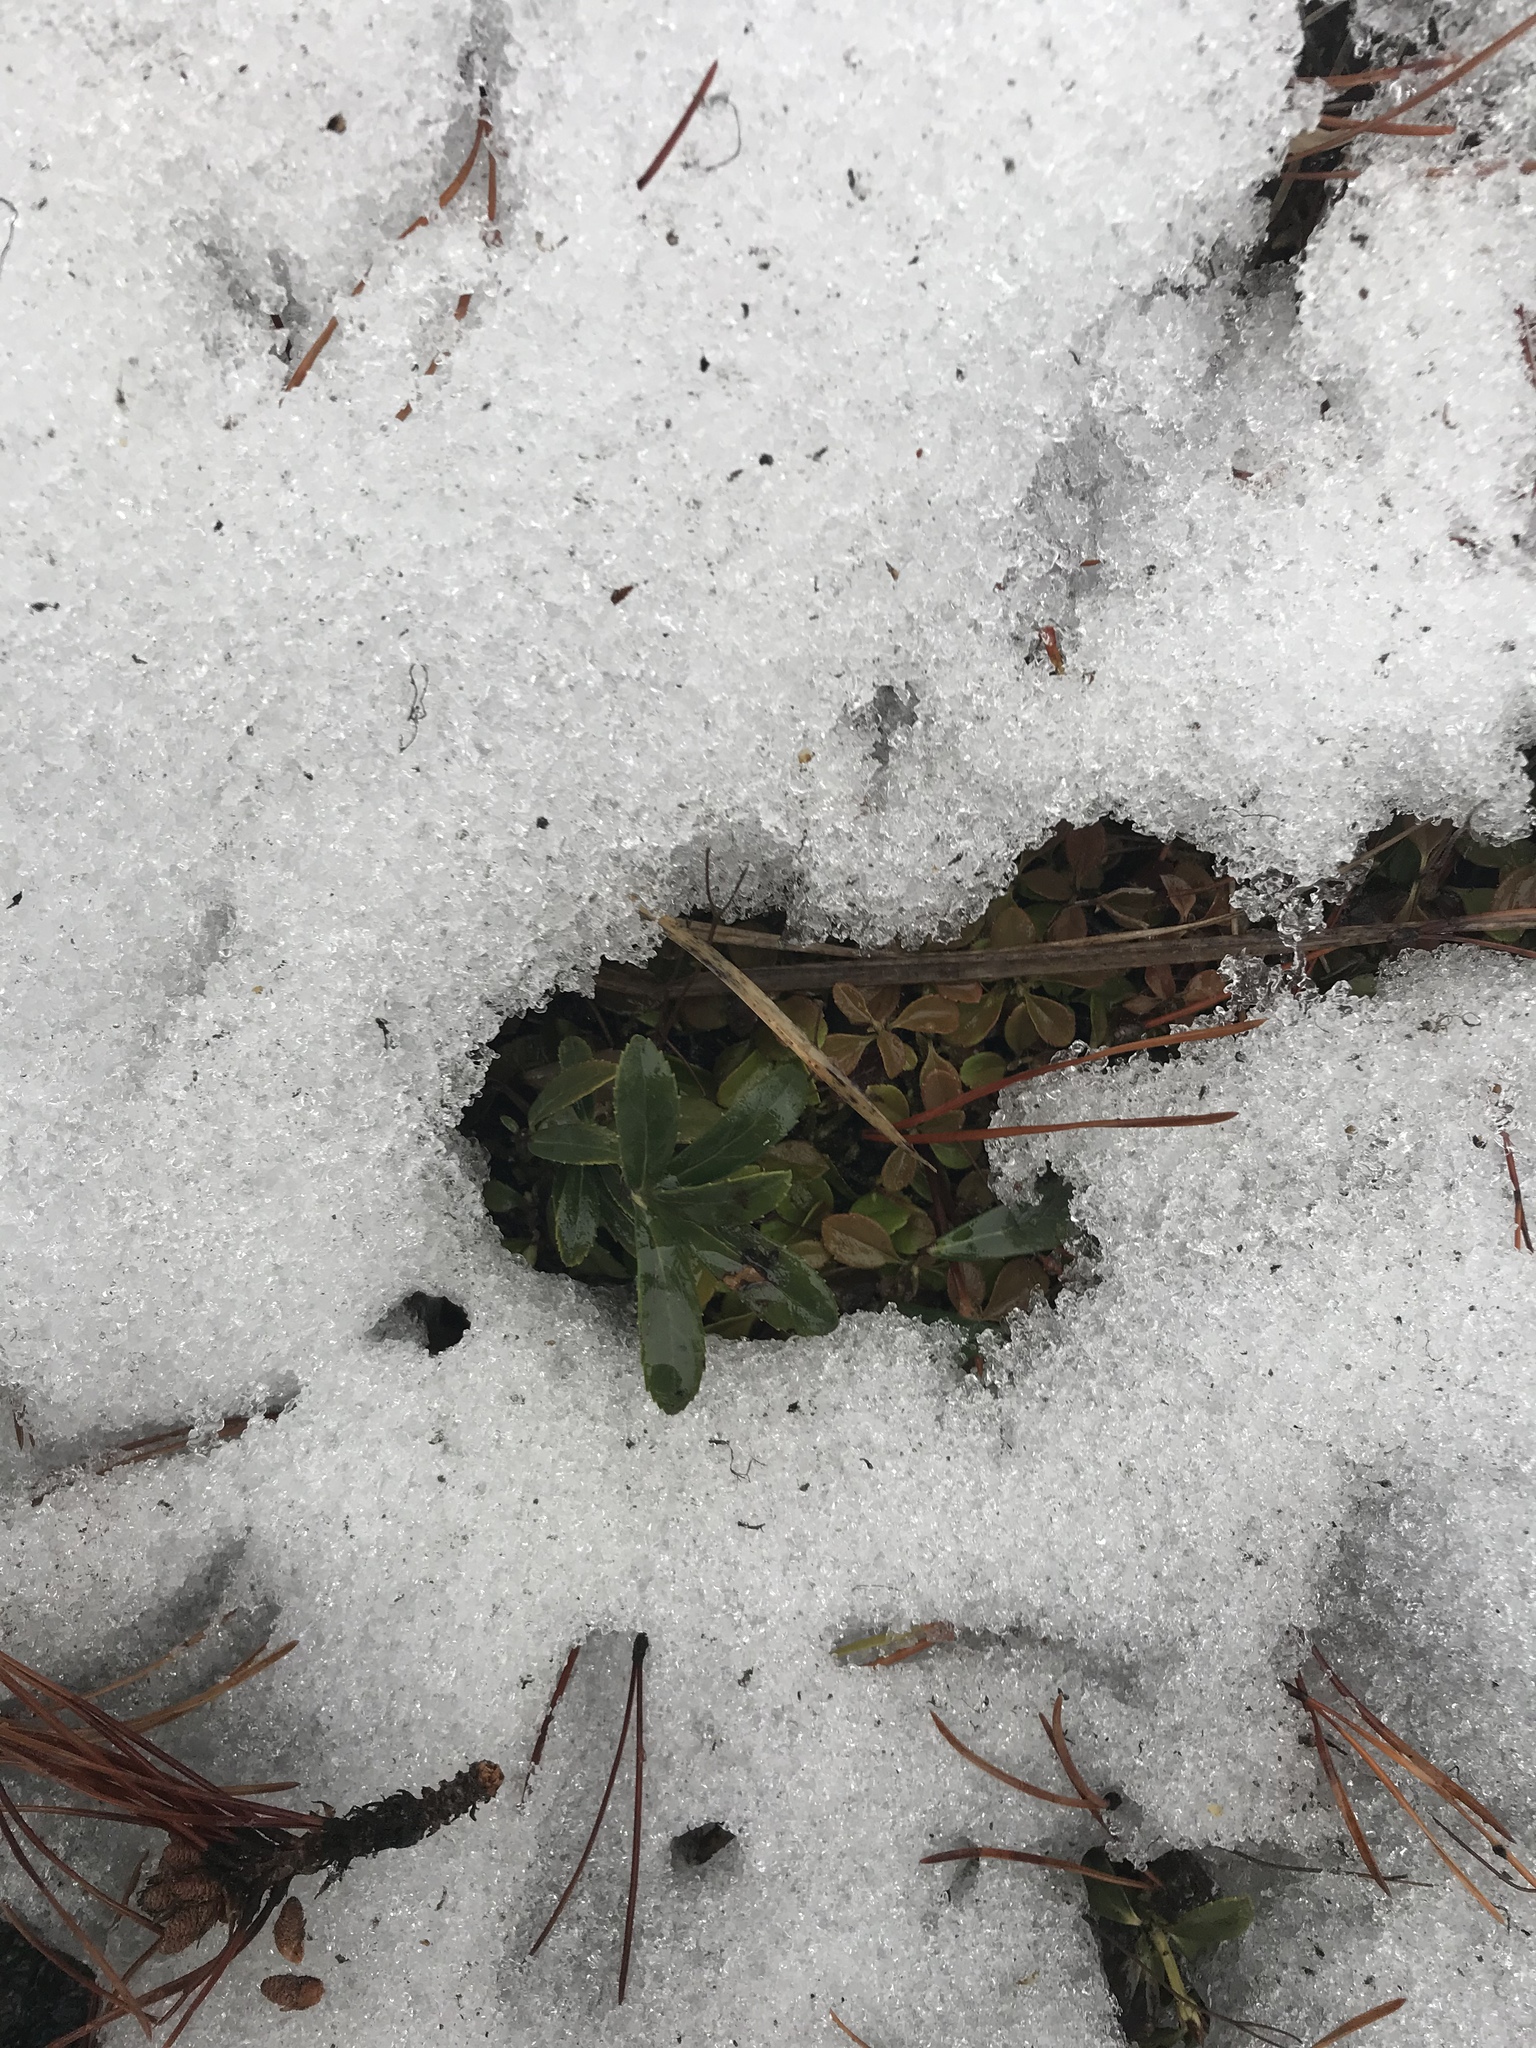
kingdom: Plantae
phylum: Tracheophyta
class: Magnoliopsida
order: Ericales
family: Ericaceae
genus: Chimaphila
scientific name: Chimaphila umbellata
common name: Pipsissewa
